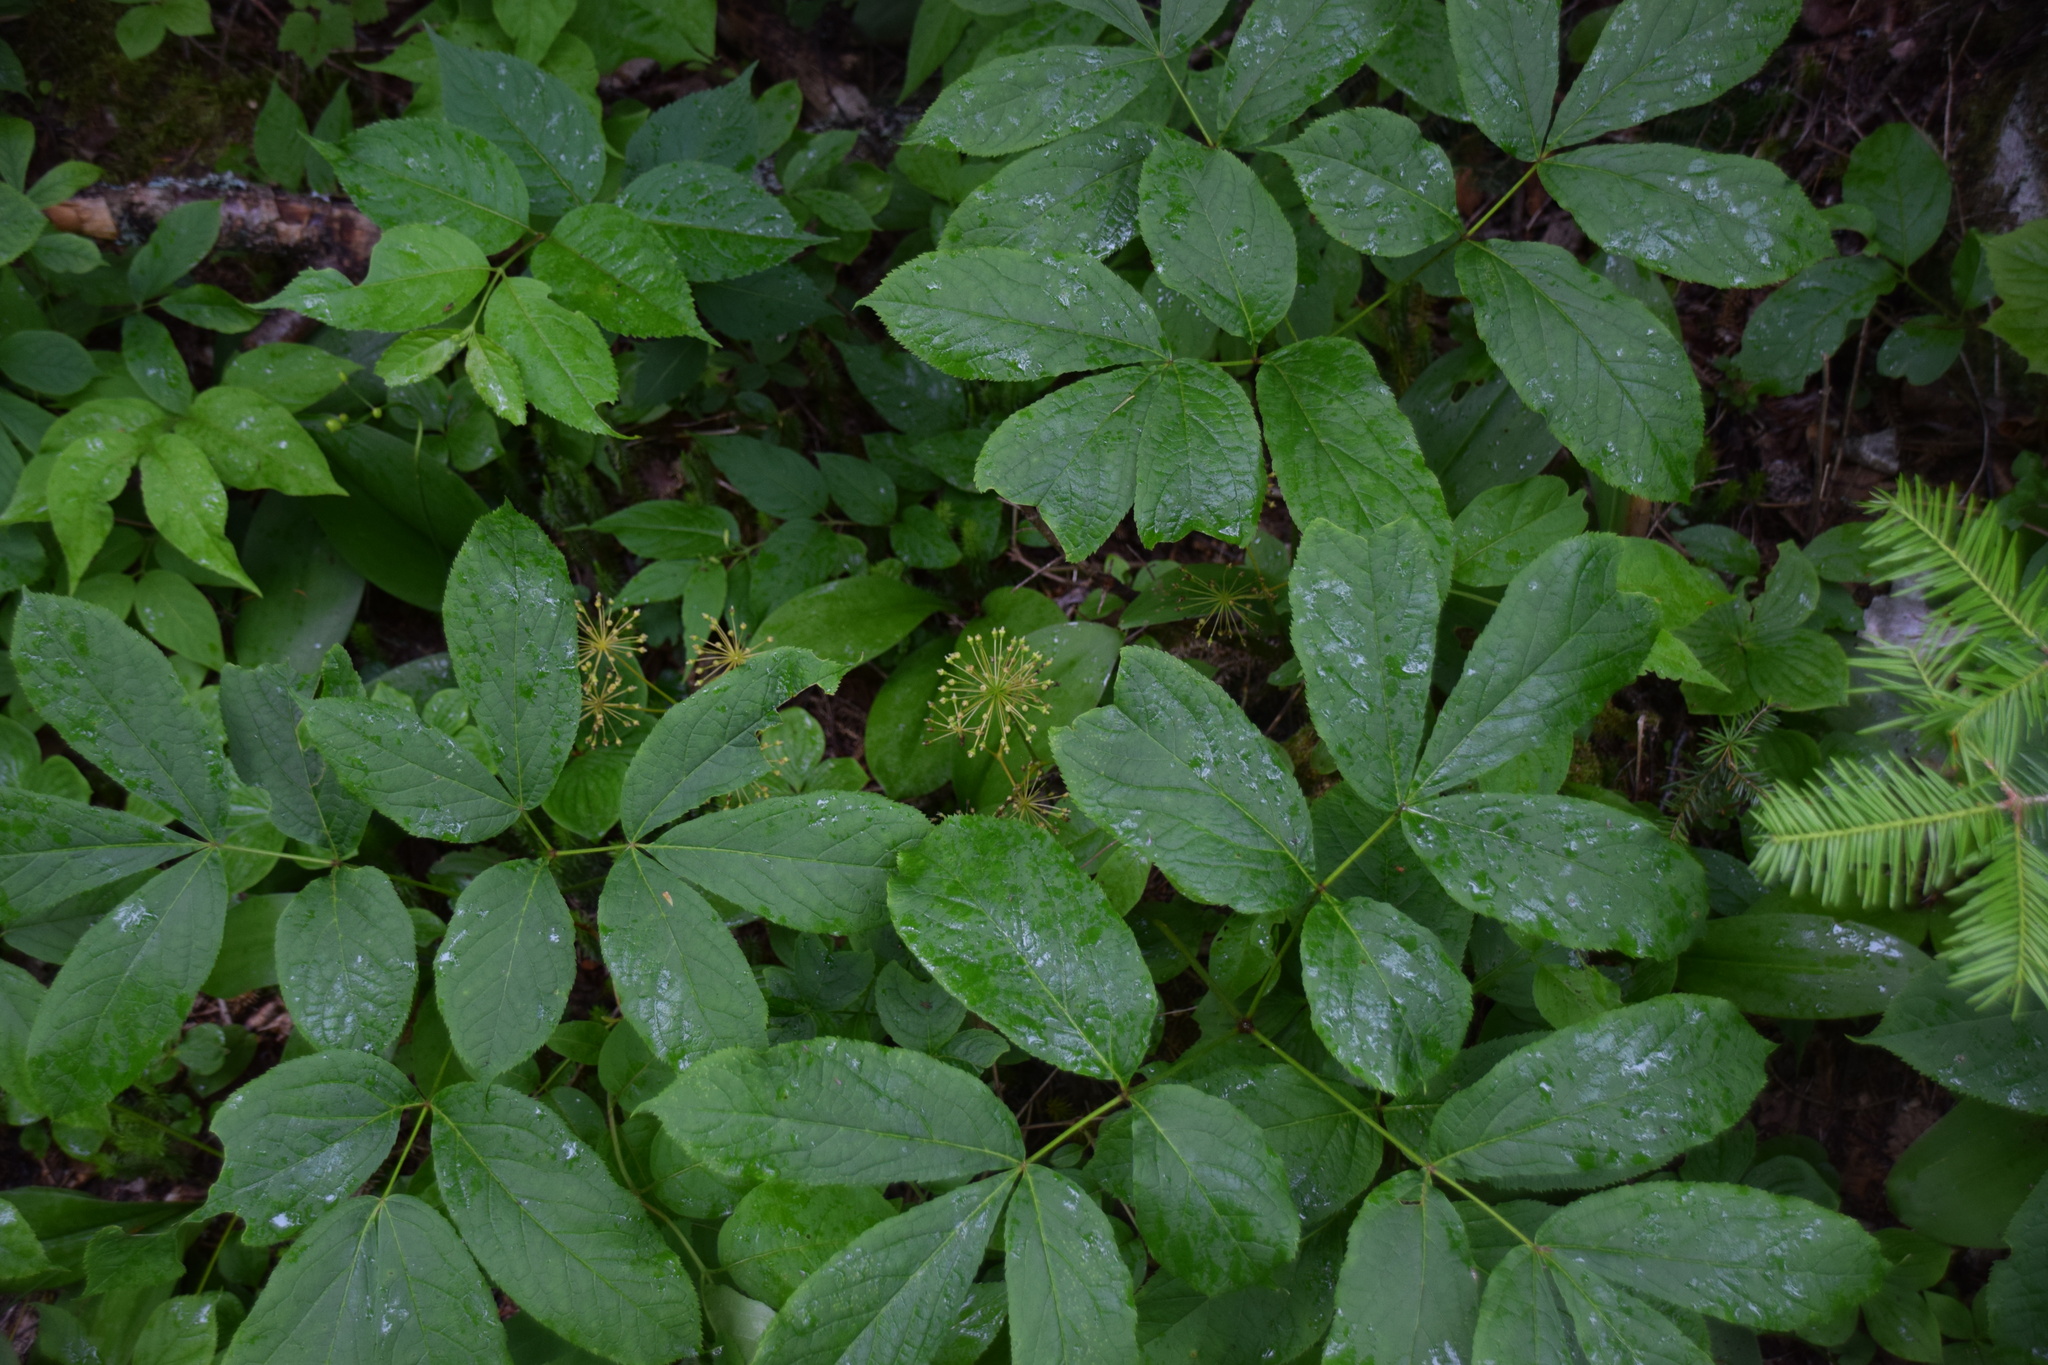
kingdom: Plantae
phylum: Tracheophyta
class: Magnoliopsida
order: Apiales
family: Araliaceae
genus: Aralia
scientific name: Aralia nudicaulis
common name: Wild sarsaparilla
